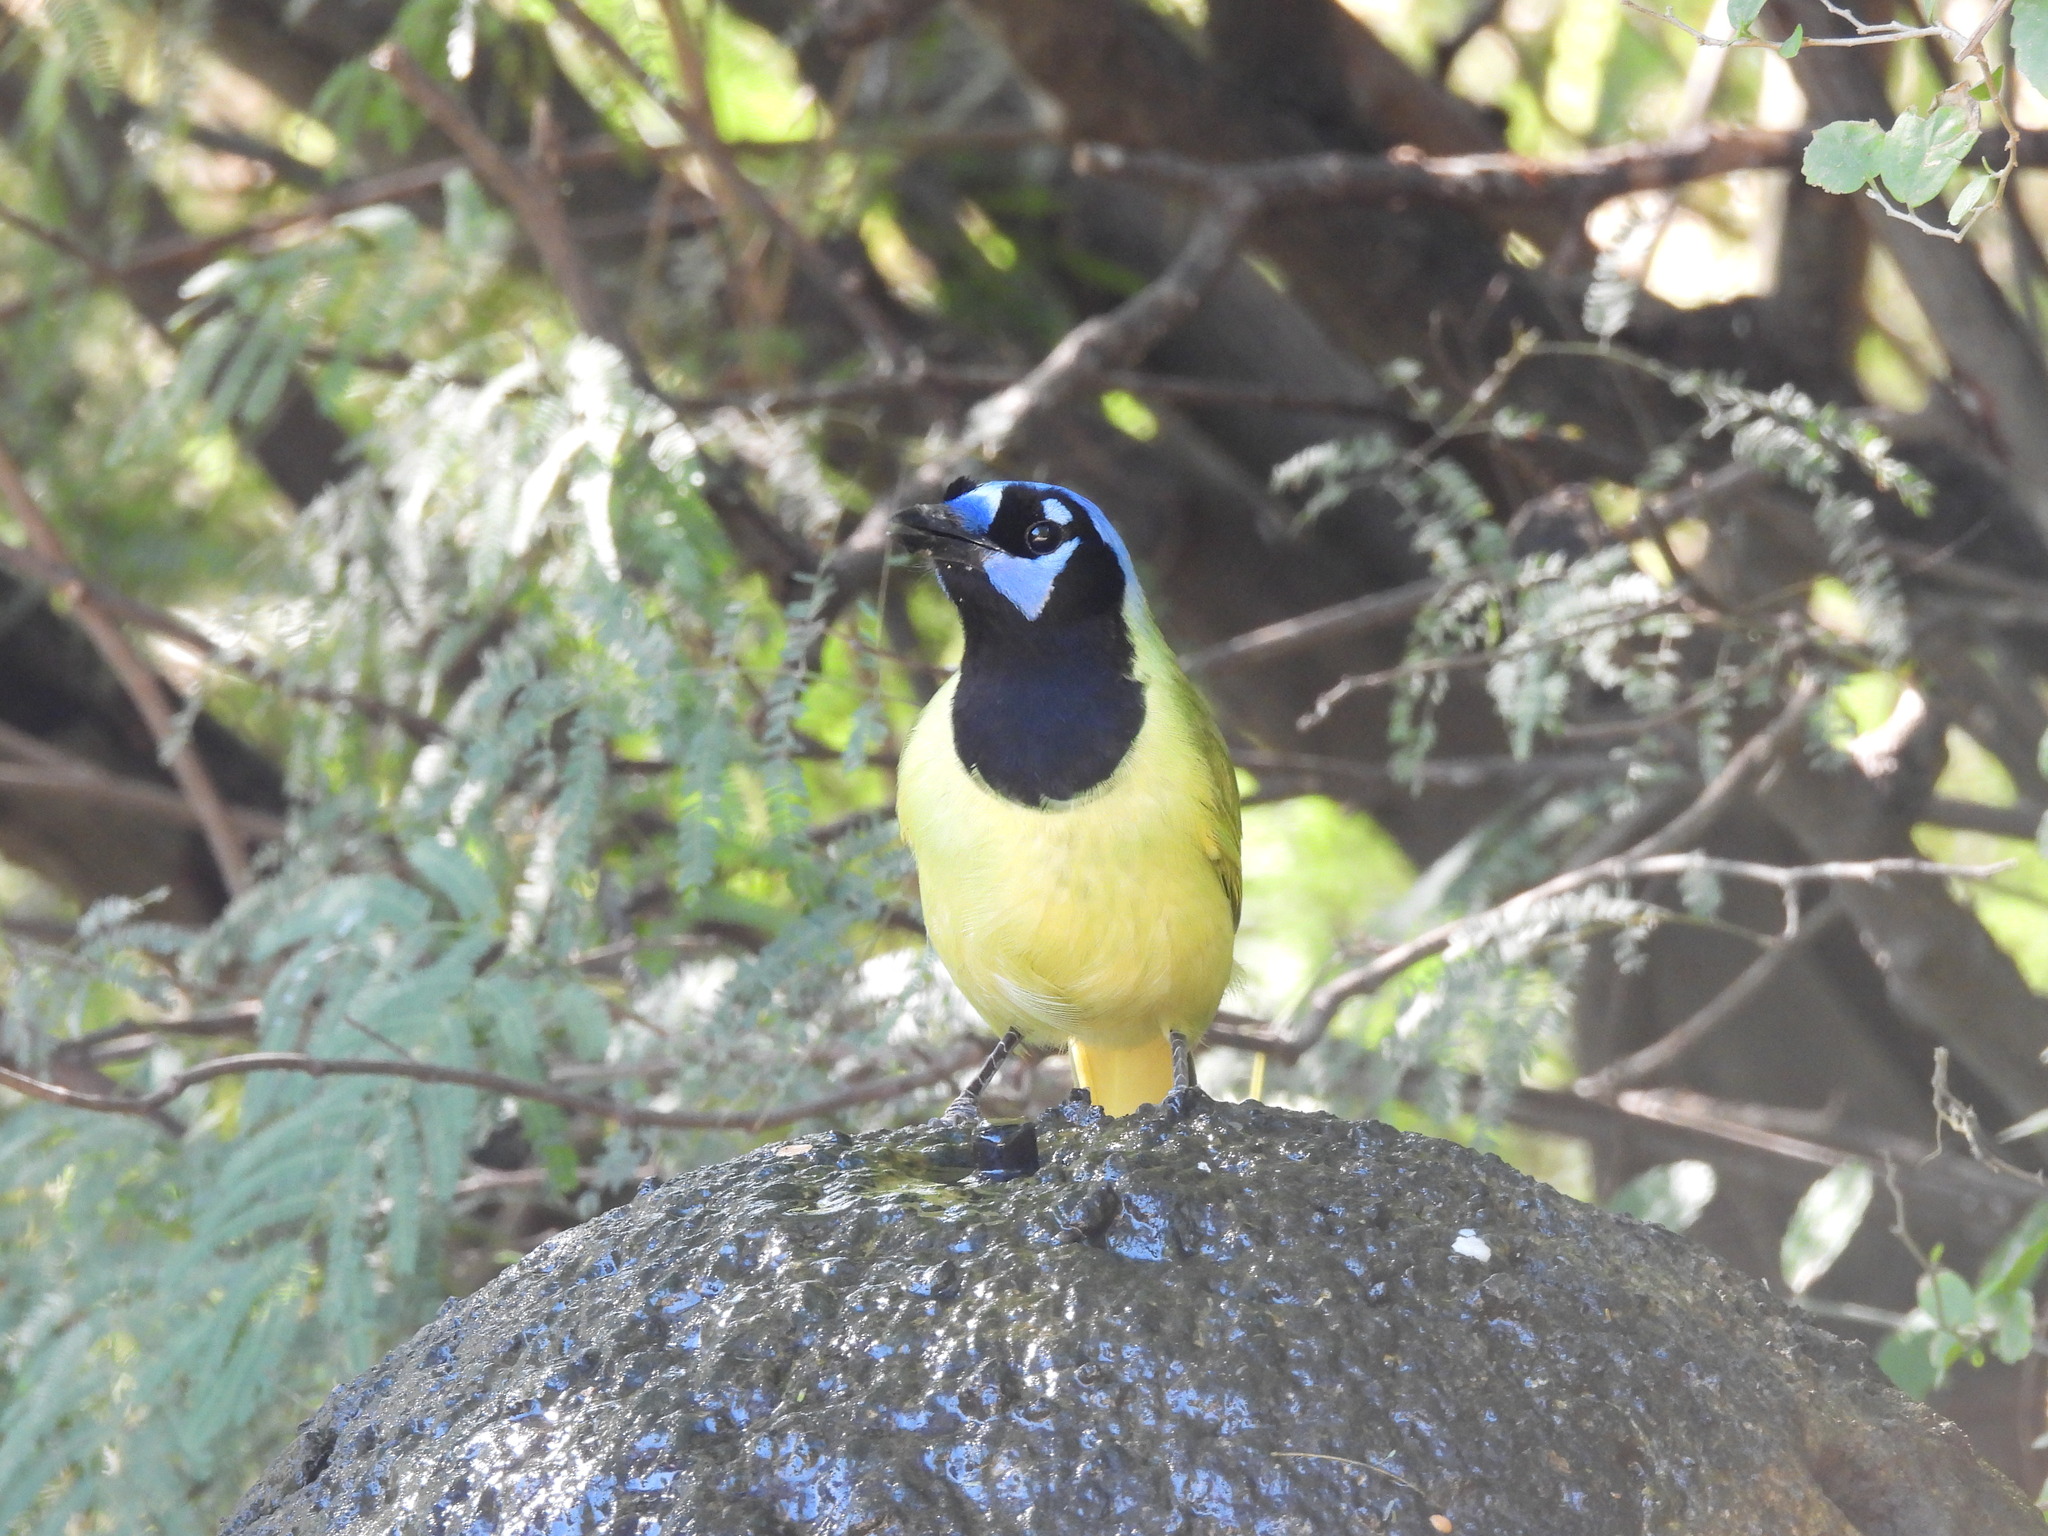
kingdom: Animalia
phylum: Chordata
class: Aves
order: Passeriformes
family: Corvidae
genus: Cyanocorax
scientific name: Cyanocorax yncas
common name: Green jay
